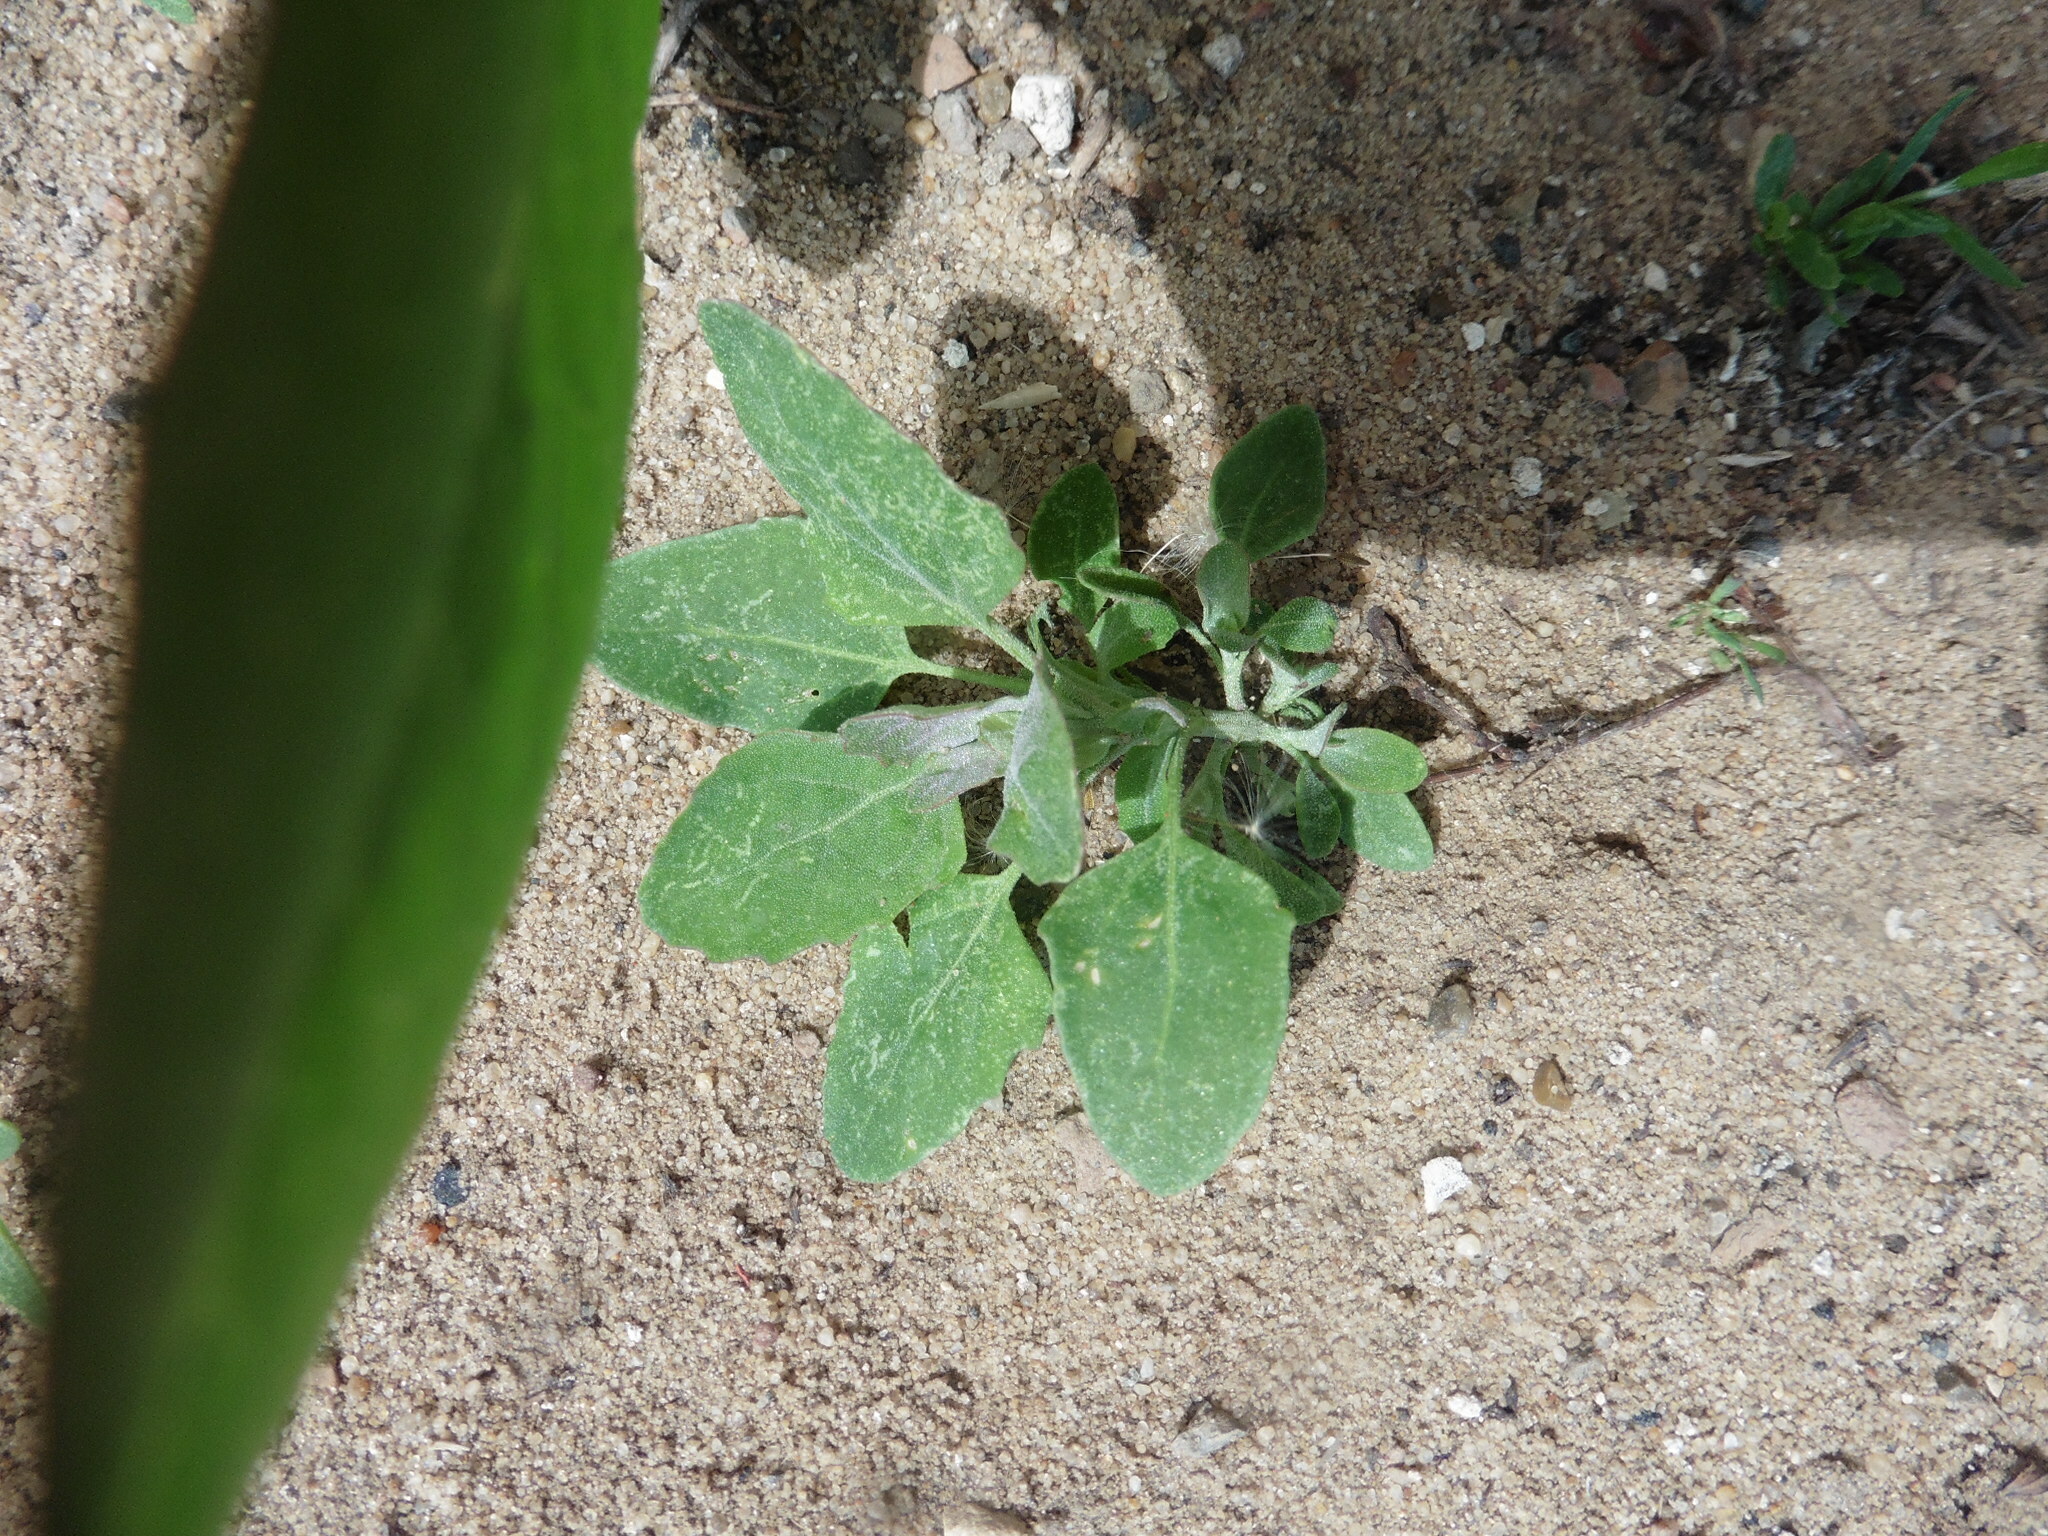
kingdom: Plantae
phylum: Tracheophyta
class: Magnoliopsida
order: Caryophyllales
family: Amaranthaceae
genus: Chenopodium
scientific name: Chenopodium album
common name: Fat-hen
